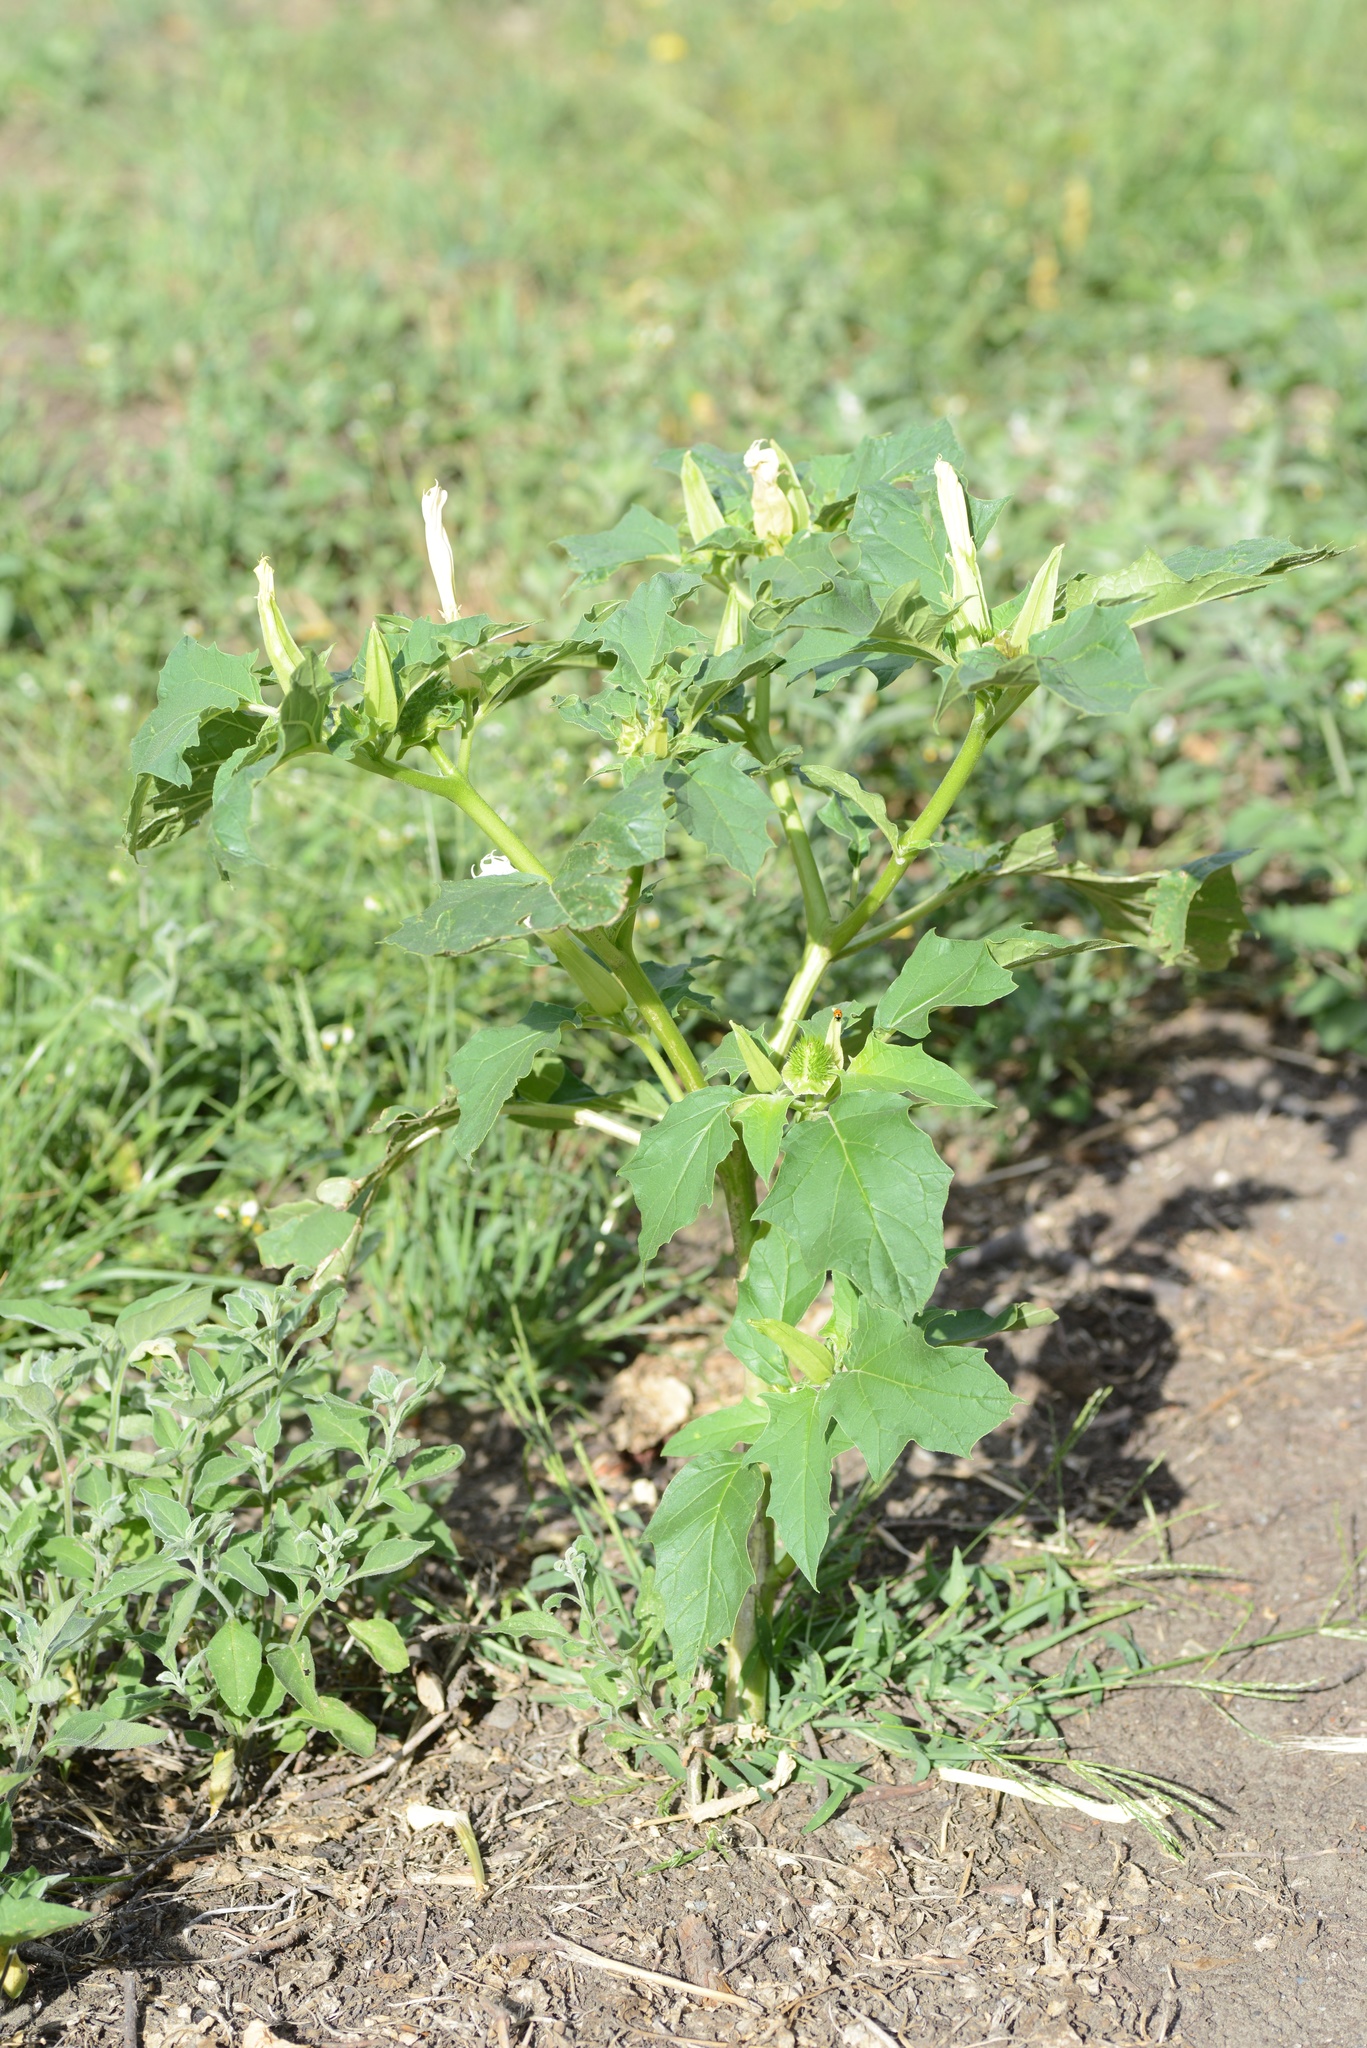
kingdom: Plantae
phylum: Tracheophyta
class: Magnoliopsida
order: Solanales
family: Solanaceae
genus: Datura
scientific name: Datura stramonium
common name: Thorn-apple
